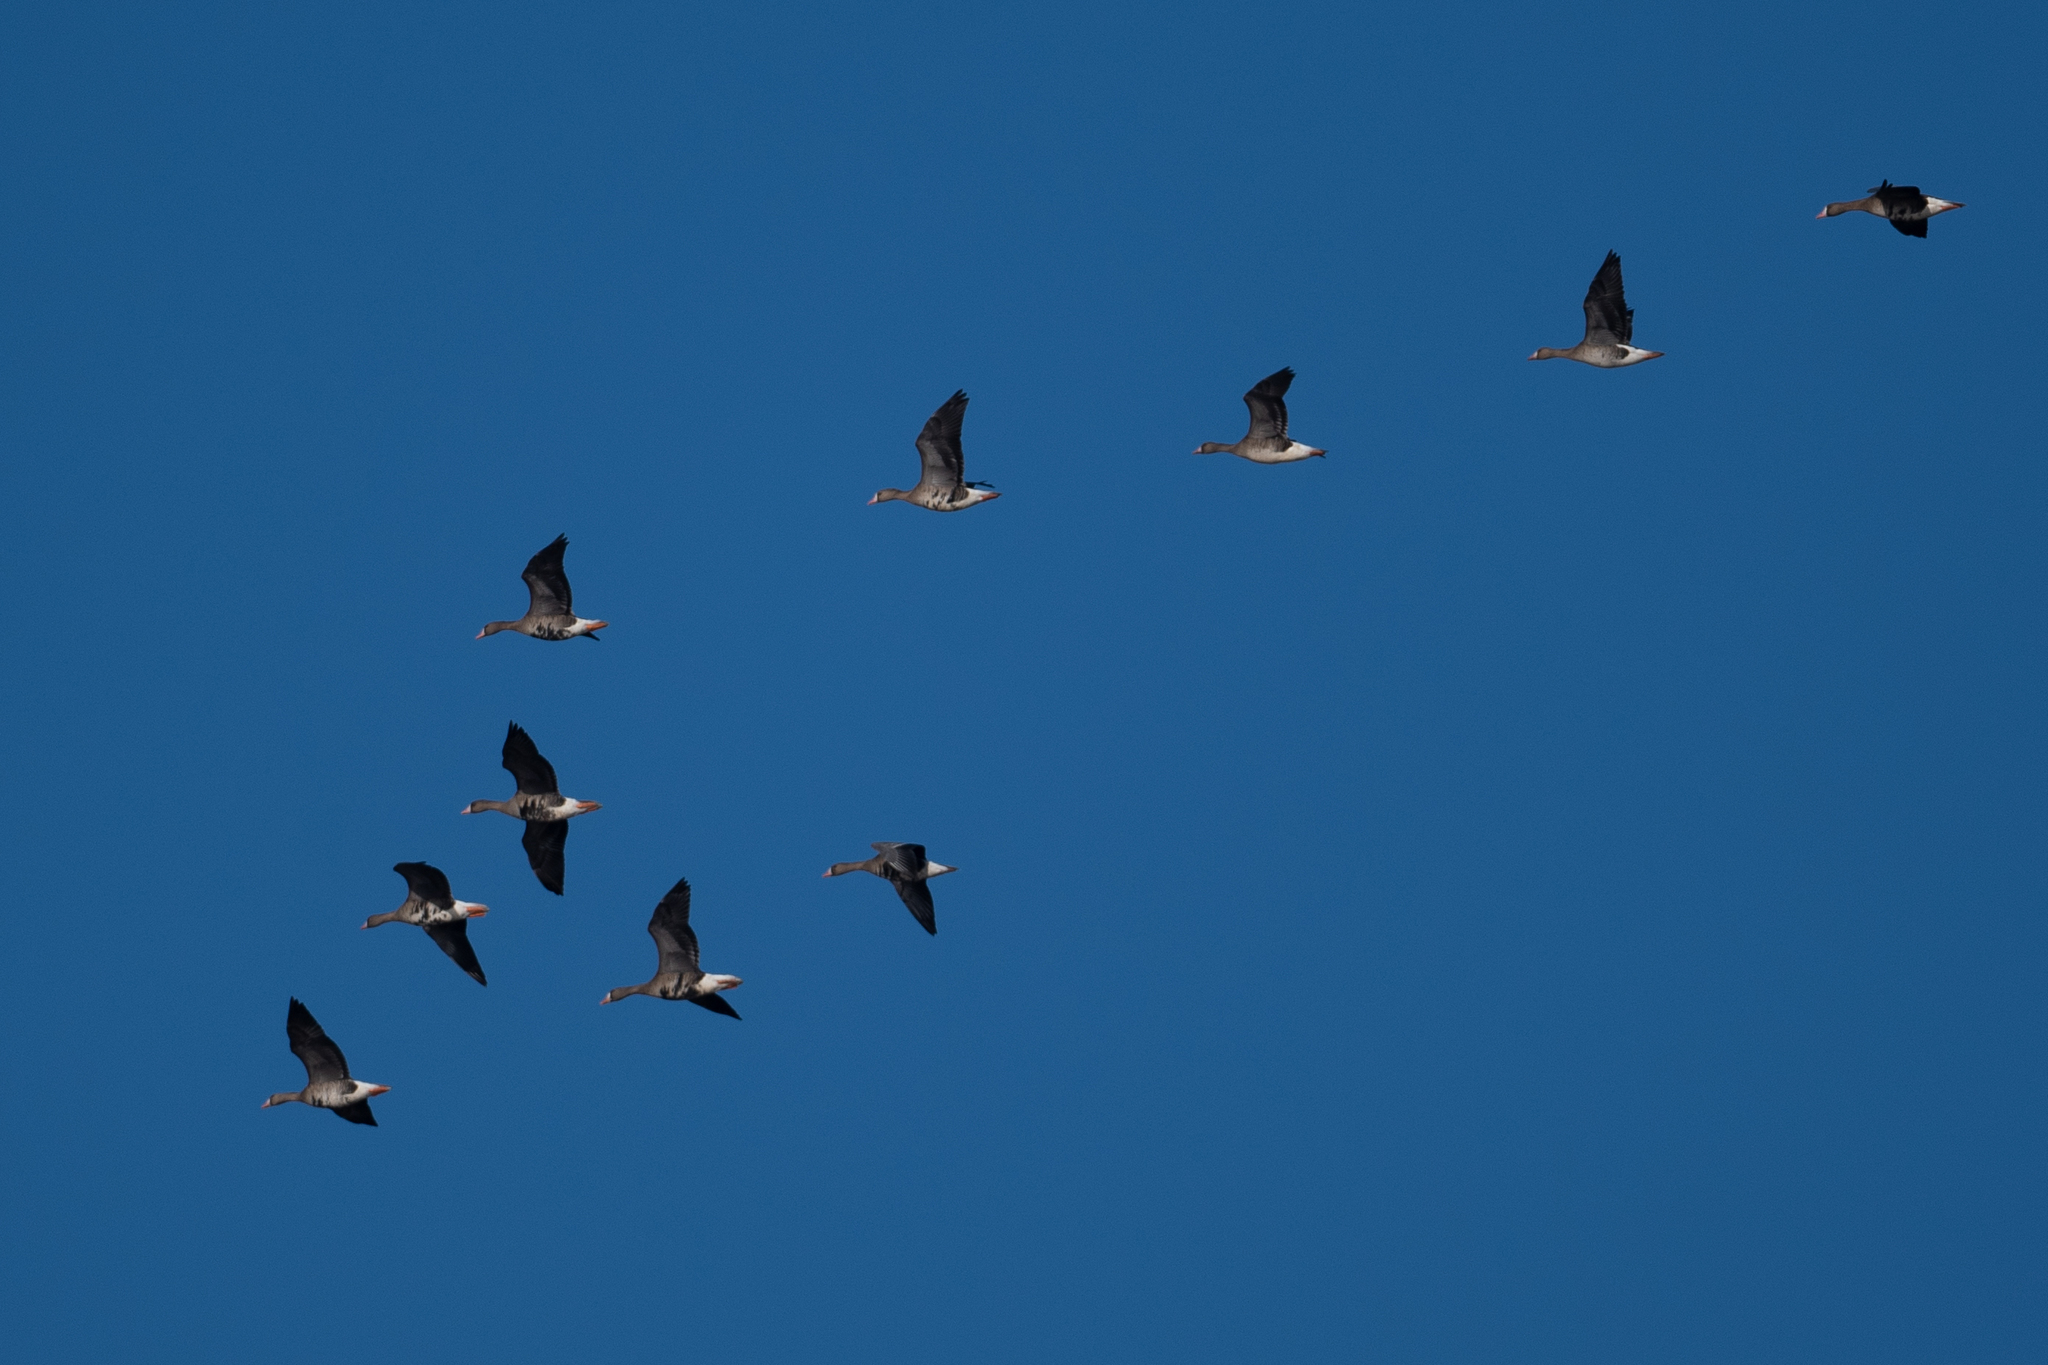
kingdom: Animalia
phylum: Chordata
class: Aves
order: Anseriformes
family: Anatidae
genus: Anser
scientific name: Anser albifrons
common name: Greater white-fronted goose
